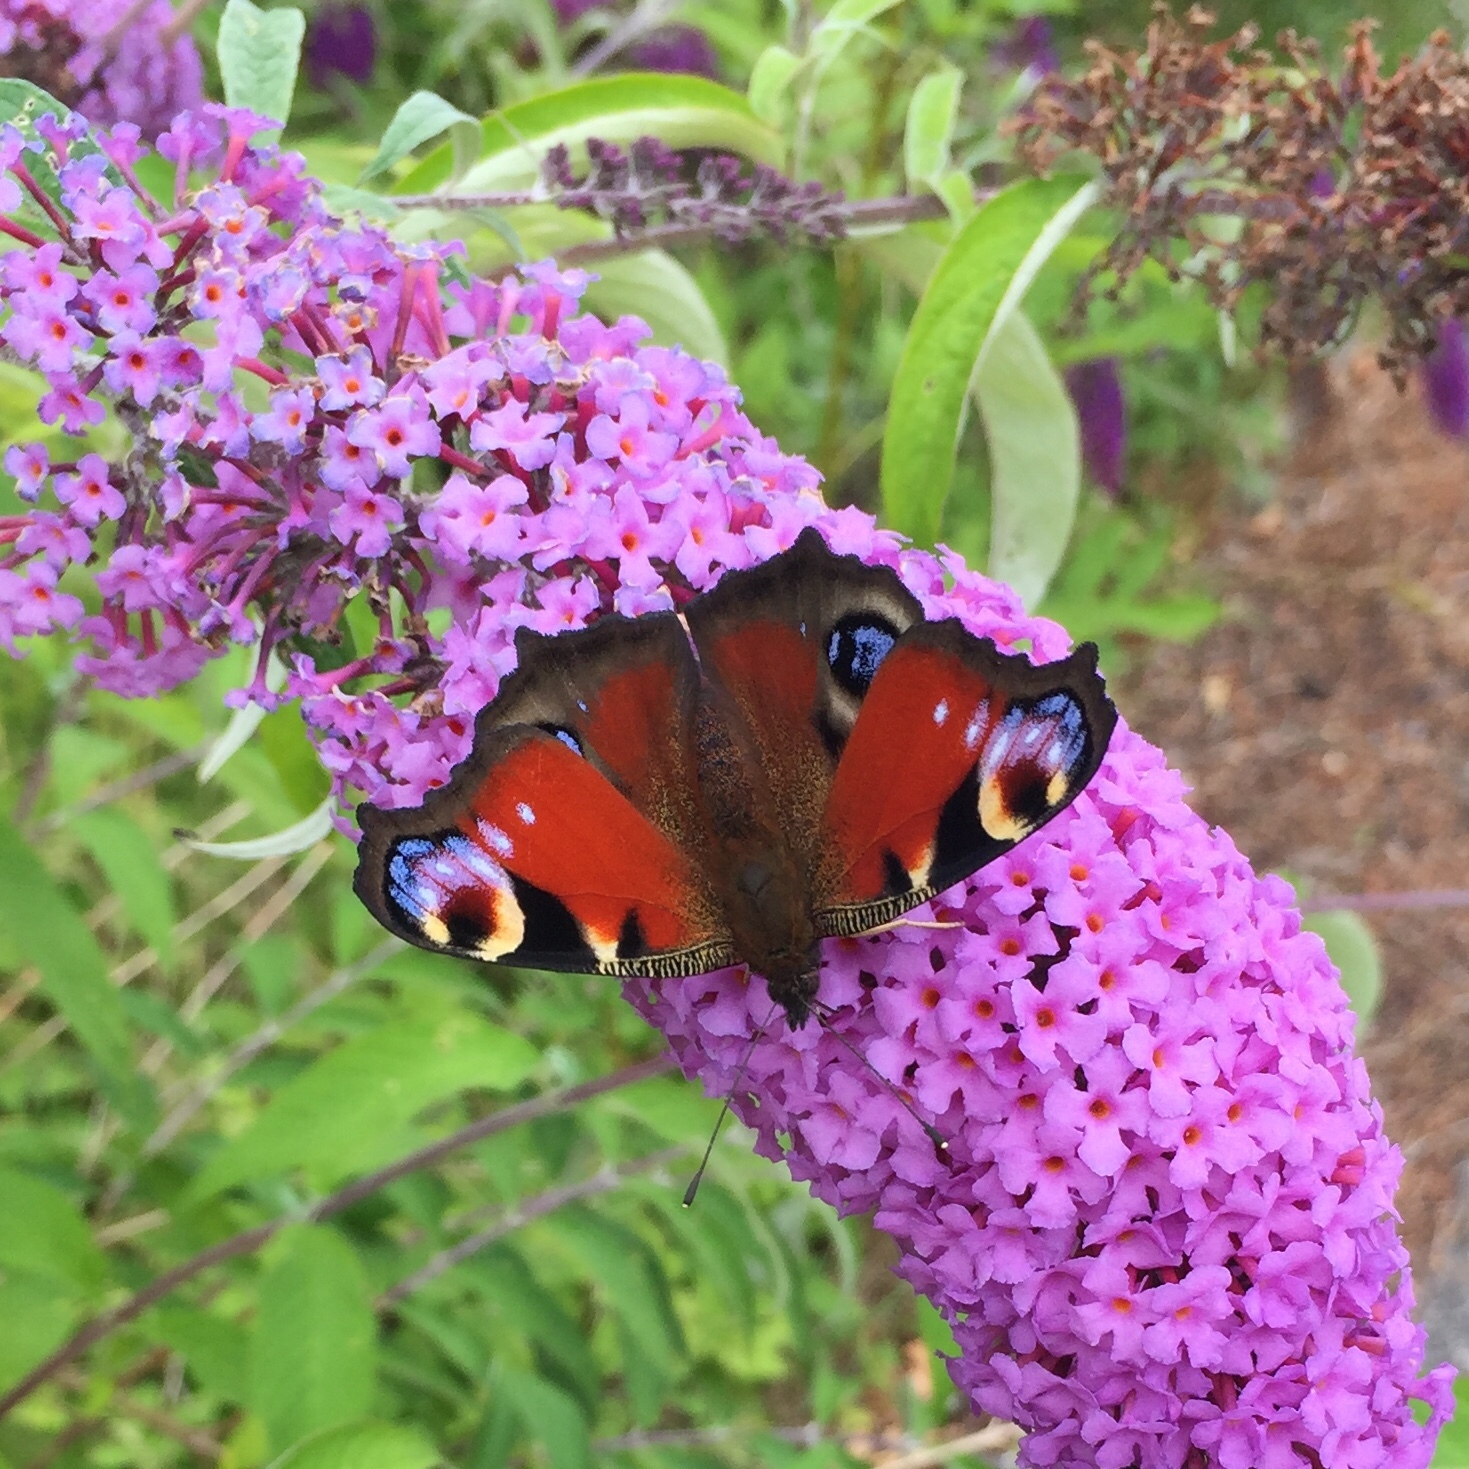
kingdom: Animalia
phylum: Arthropoda
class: Insecta
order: Lepidoptera
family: Nymphalidae
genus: Aglais
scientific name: Aglais io
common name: Peacock
